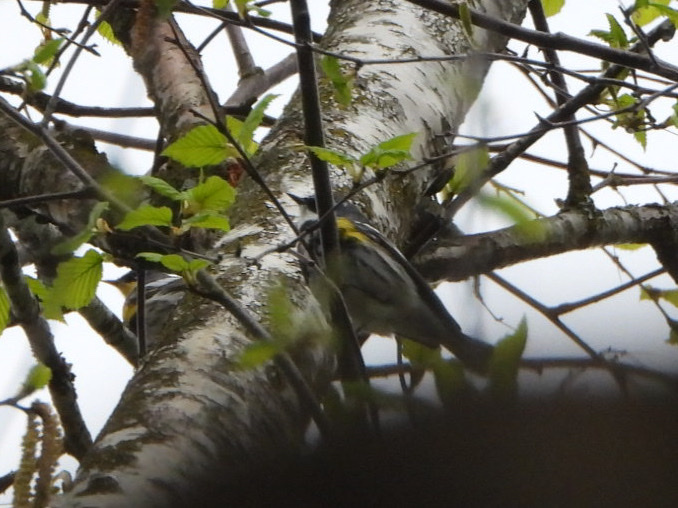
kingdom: Animalia
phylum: Chordata
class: Aves
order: Passeriformes
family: Parulidae
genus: Setophaga
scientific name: Setophaga coronata
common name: Myrtle warbler
